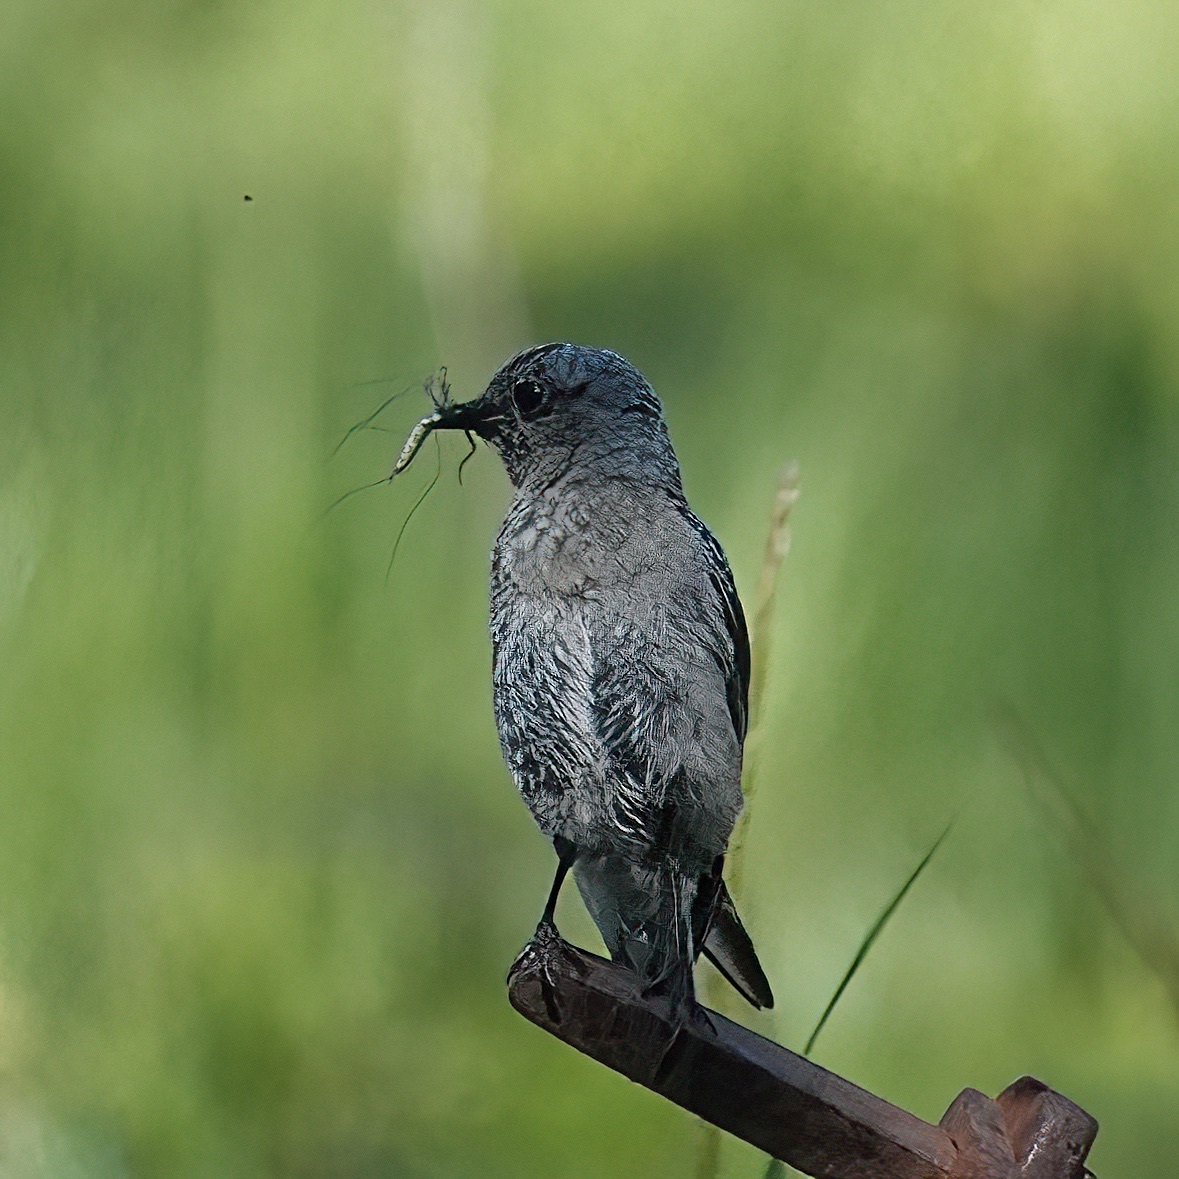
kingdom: Animalia
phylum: Chordata
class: Aves
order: Passeriformes
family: Turdidae
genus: Sialia
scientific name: Sialia mexicana
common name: Western bluebird
